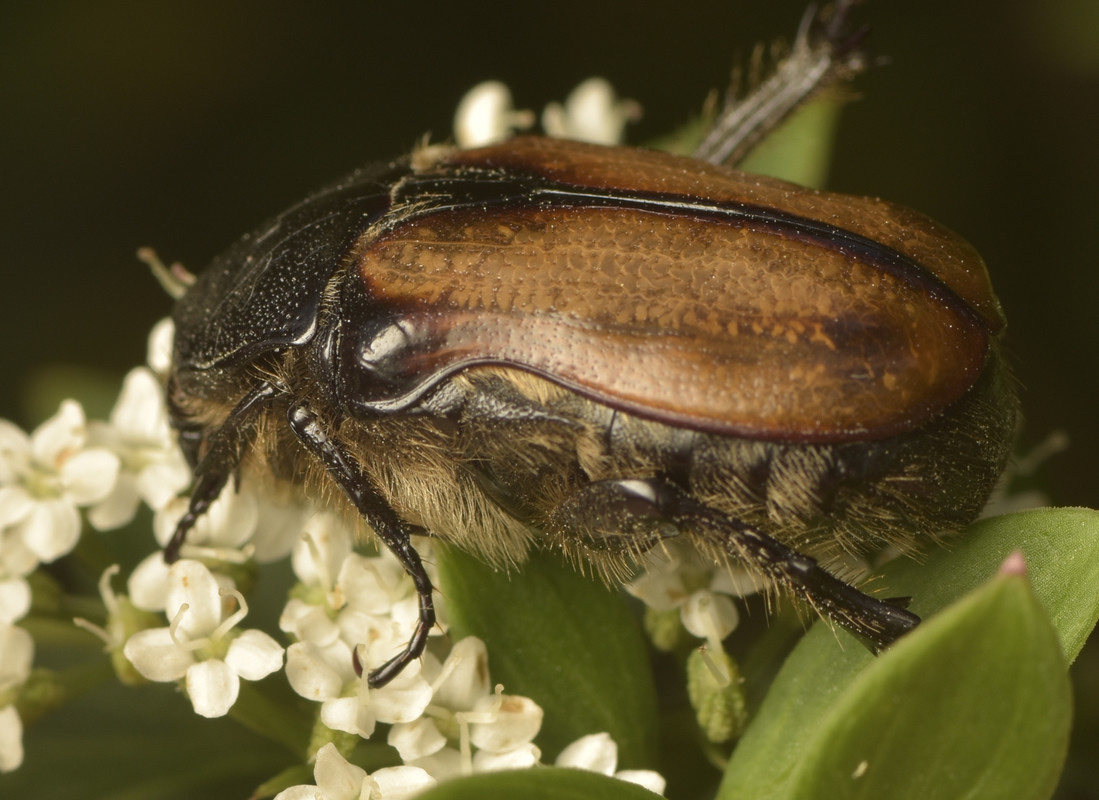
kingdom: Animalia
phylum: Arthropoda
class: Insecta
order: Coleoptera
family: Scarabaeidae
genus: Bisallardiana
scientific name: Bisallardiana gymnopleura
